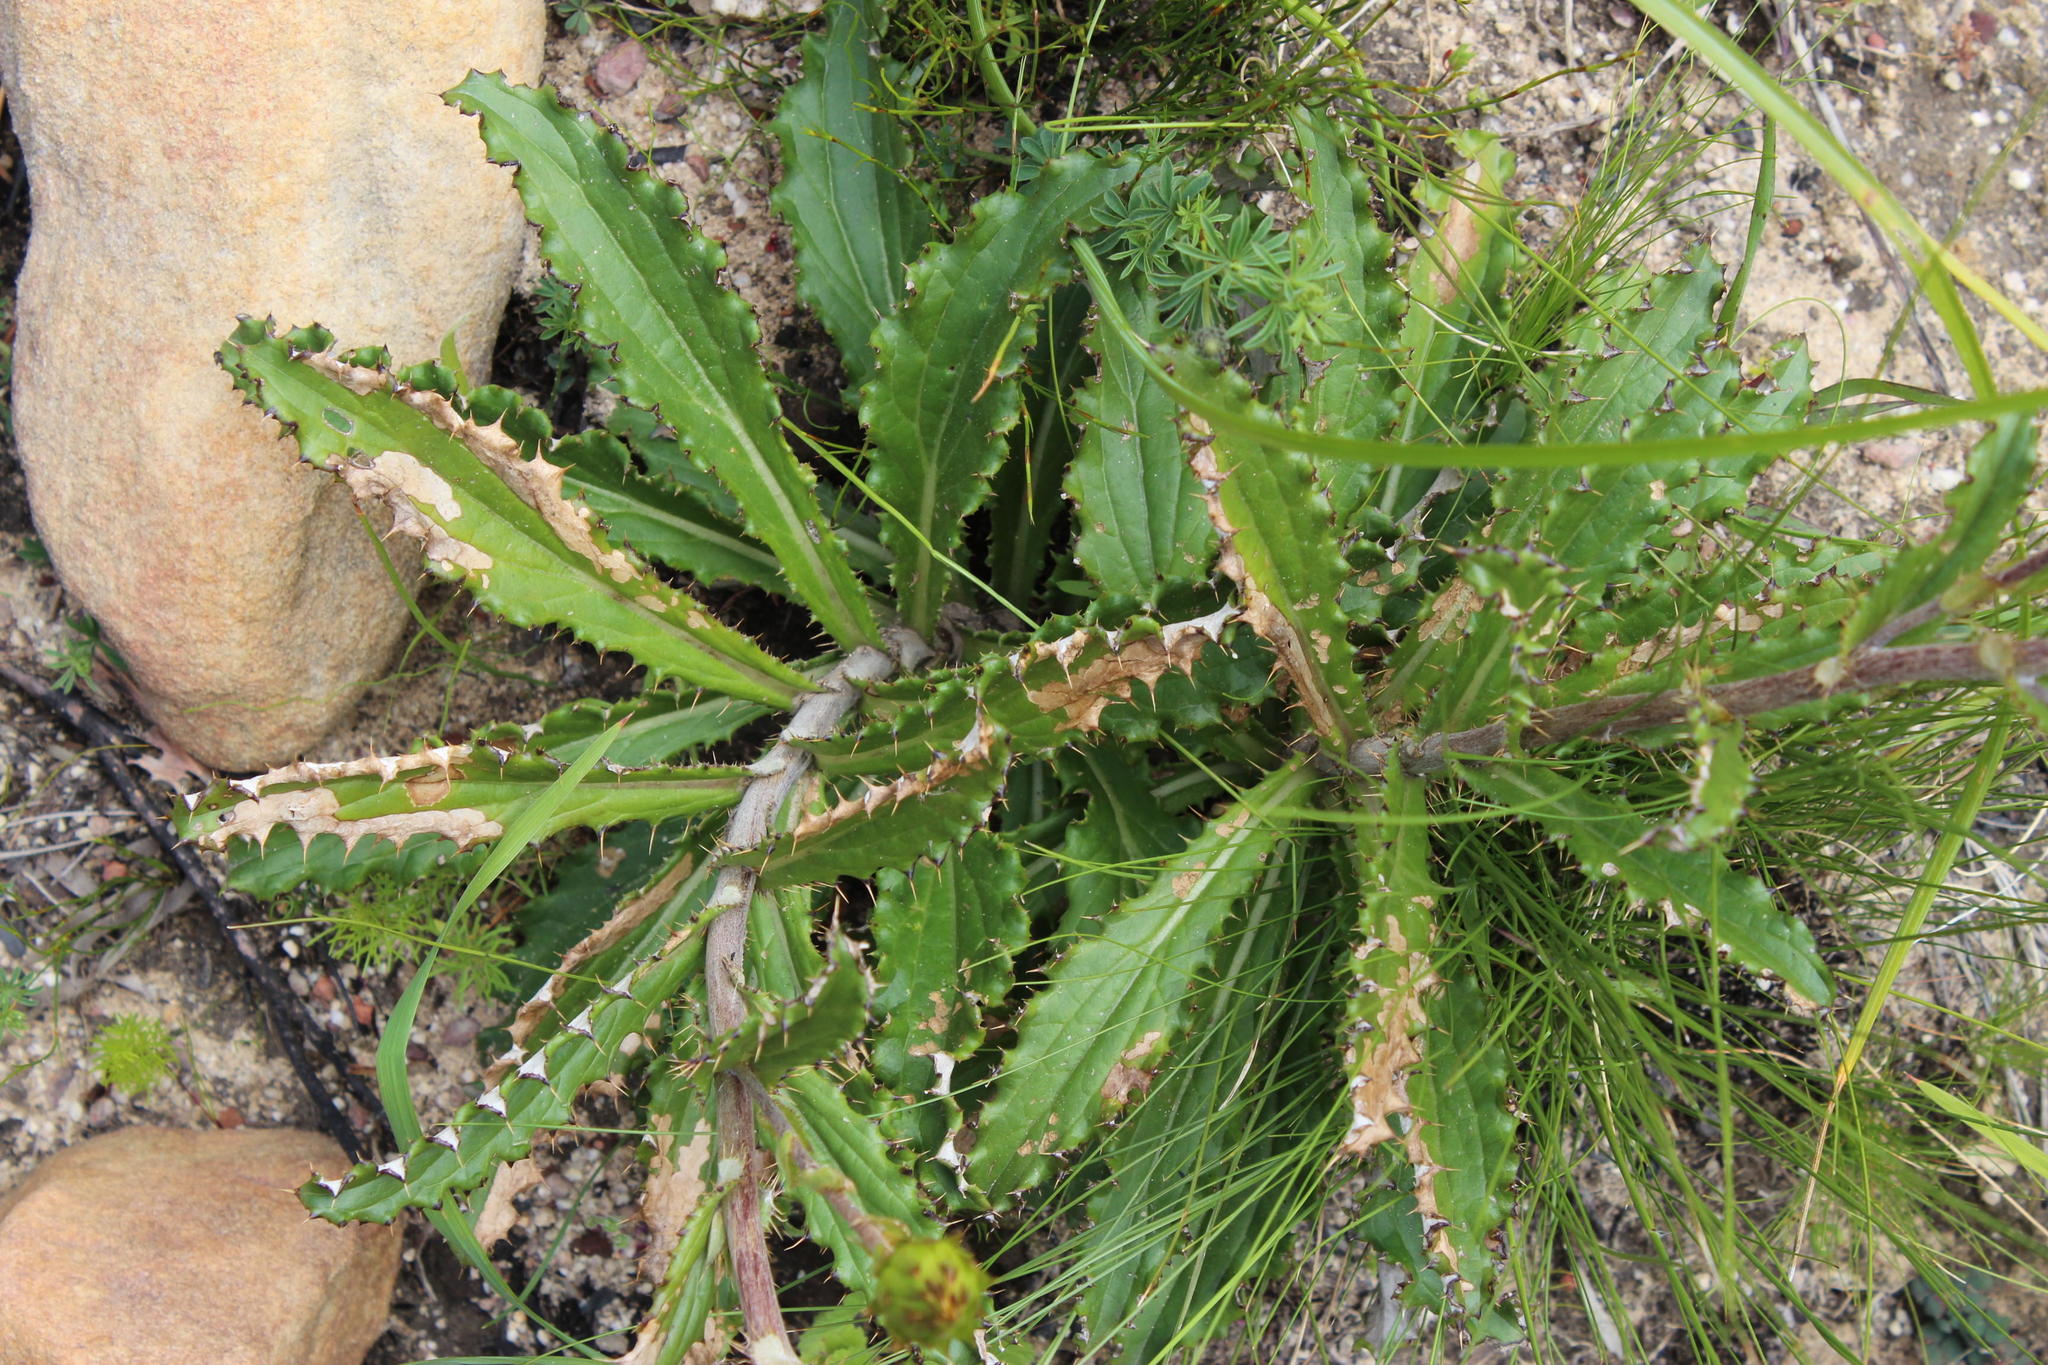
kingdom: Plantae
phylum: Tracheophyta
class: Magnoliopsida
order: Asterales
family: Asteraceae
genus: Berkheya
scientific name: Berkheya herbacea
